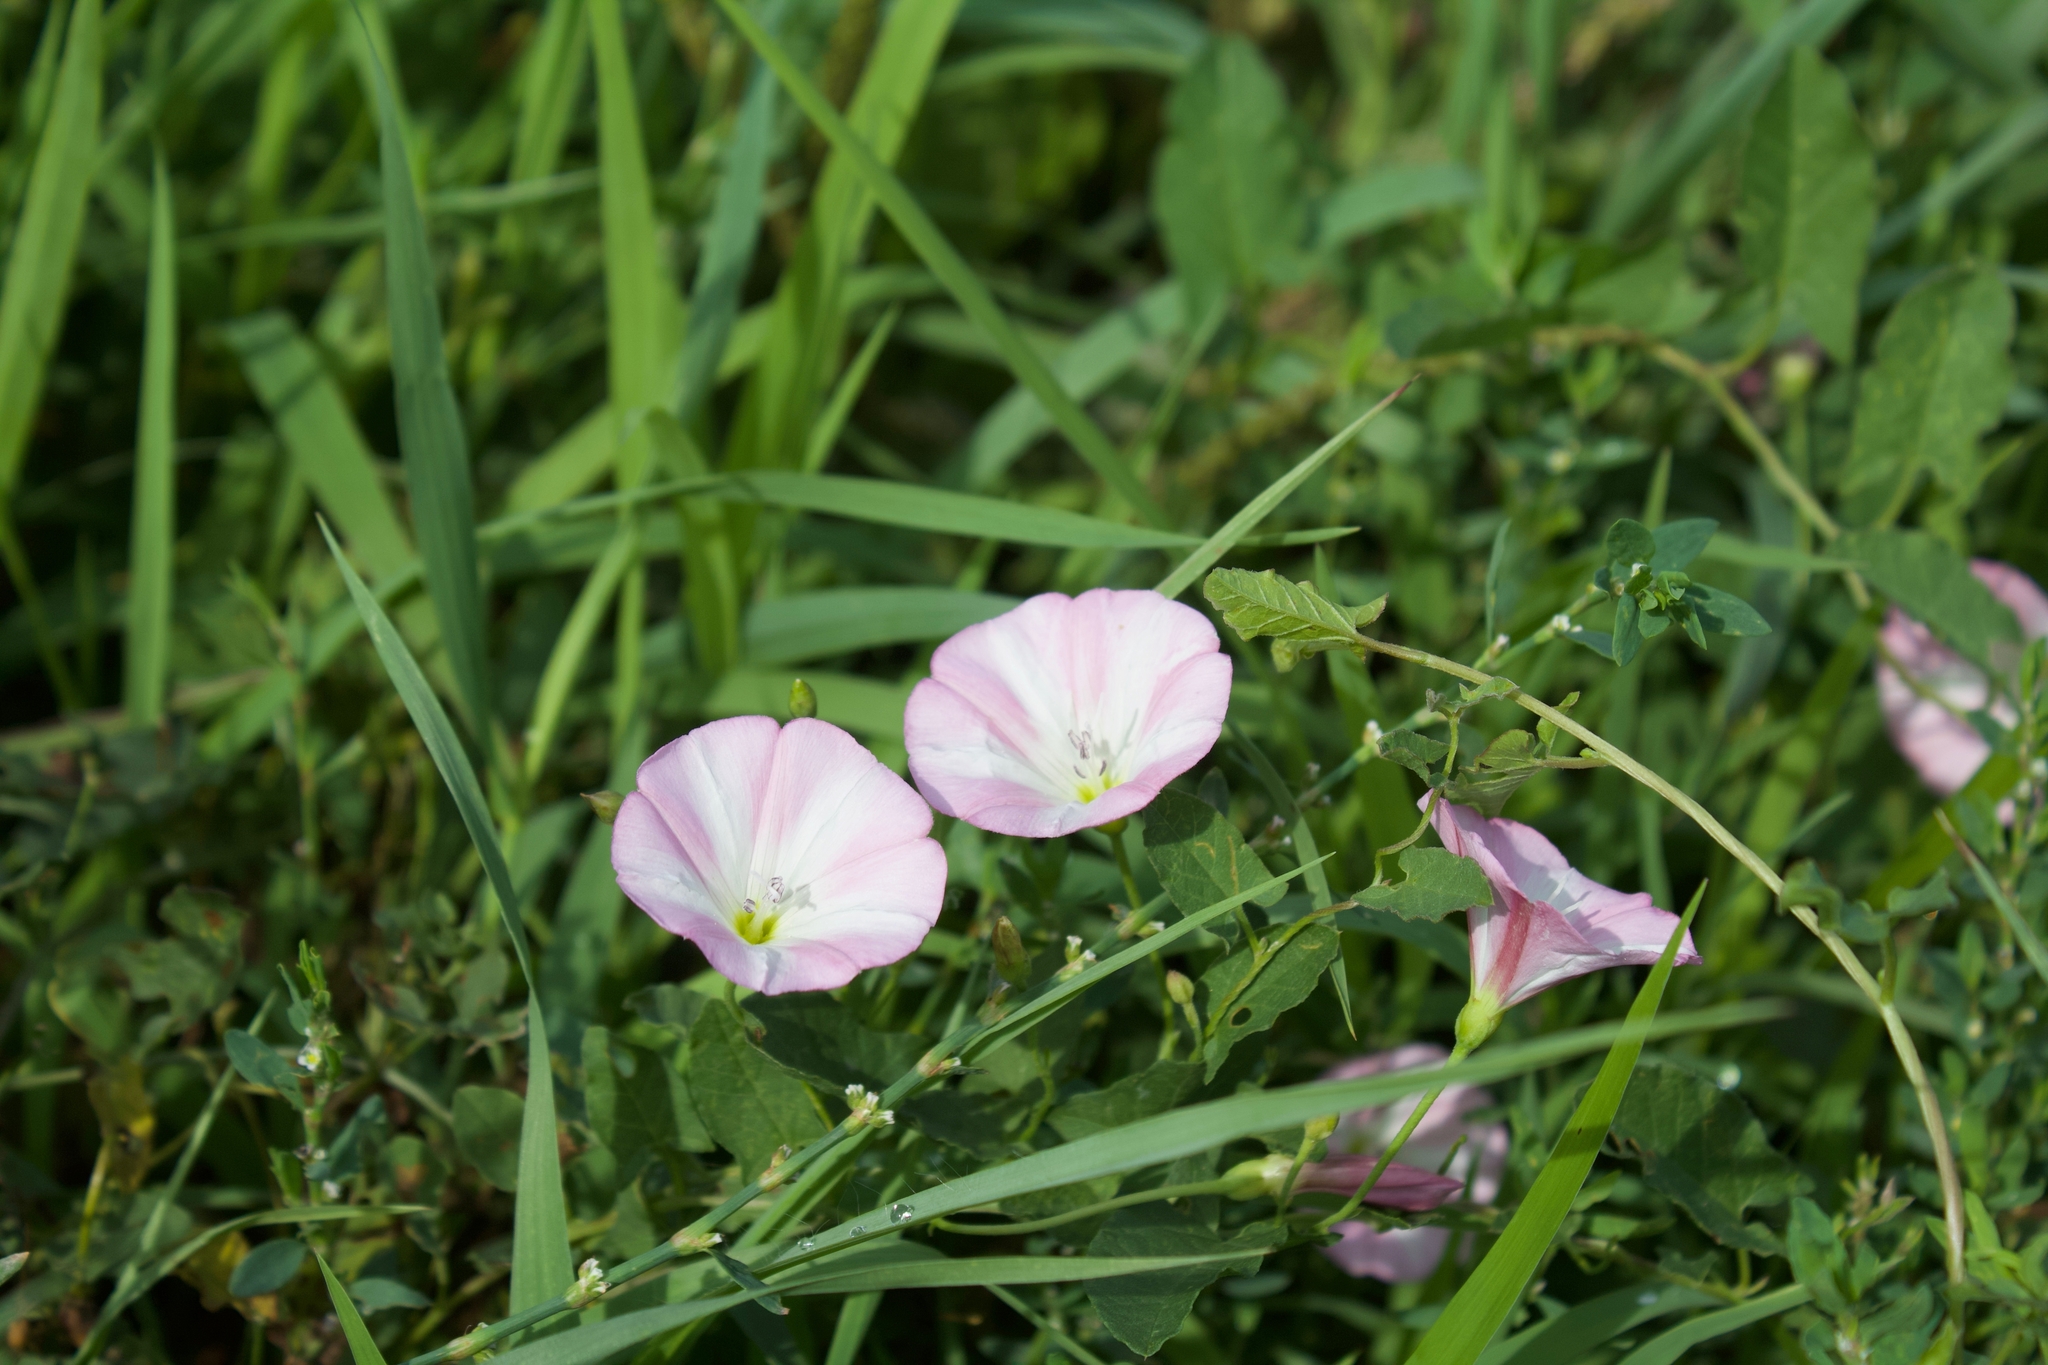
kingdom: Plantae
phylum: Tracheophyta
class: Magnoliopsida
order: Solanales
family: Convolvulaceae
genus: Convolvulus
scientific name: Convolvulus arvensis
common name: Field bindweed
